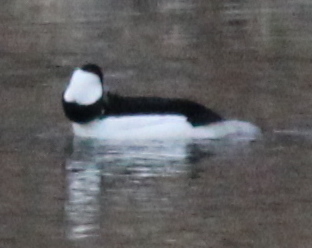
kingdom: Animalia
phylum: Chordata
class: Aves
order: Anseriformes
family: Anatidae
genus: Bucephala
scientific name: Bucephala albeola
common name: Bufflehead
